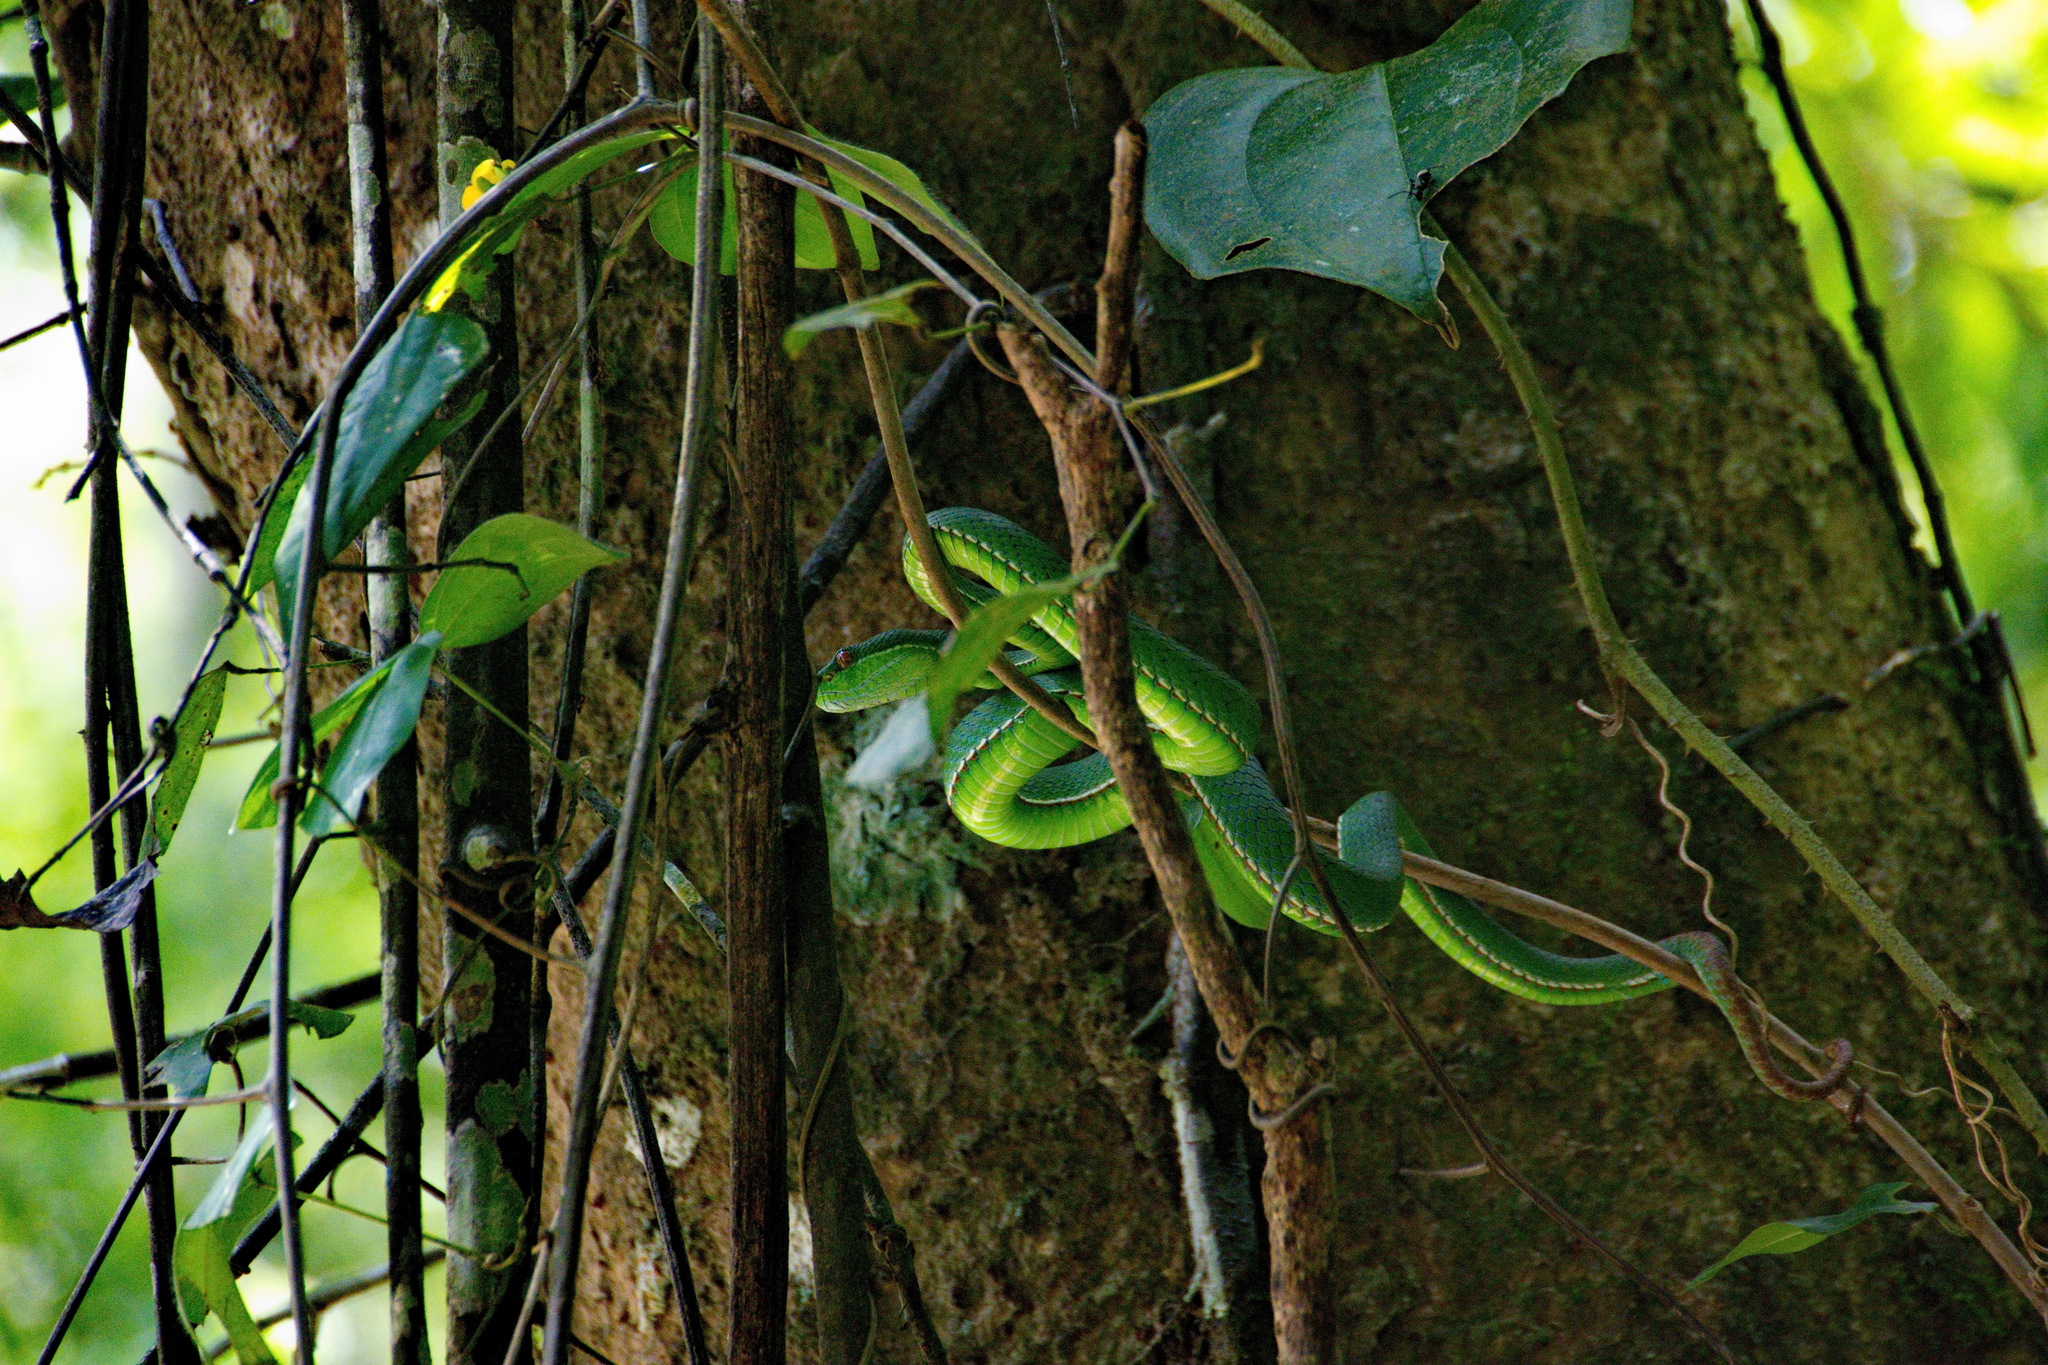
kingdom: Animalia
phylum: Chordata
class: Squamata
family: Viperidae
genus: Trimeresurus
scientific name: Trimeresurus stejnegeri
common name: Chen’s bamboo pit viper
